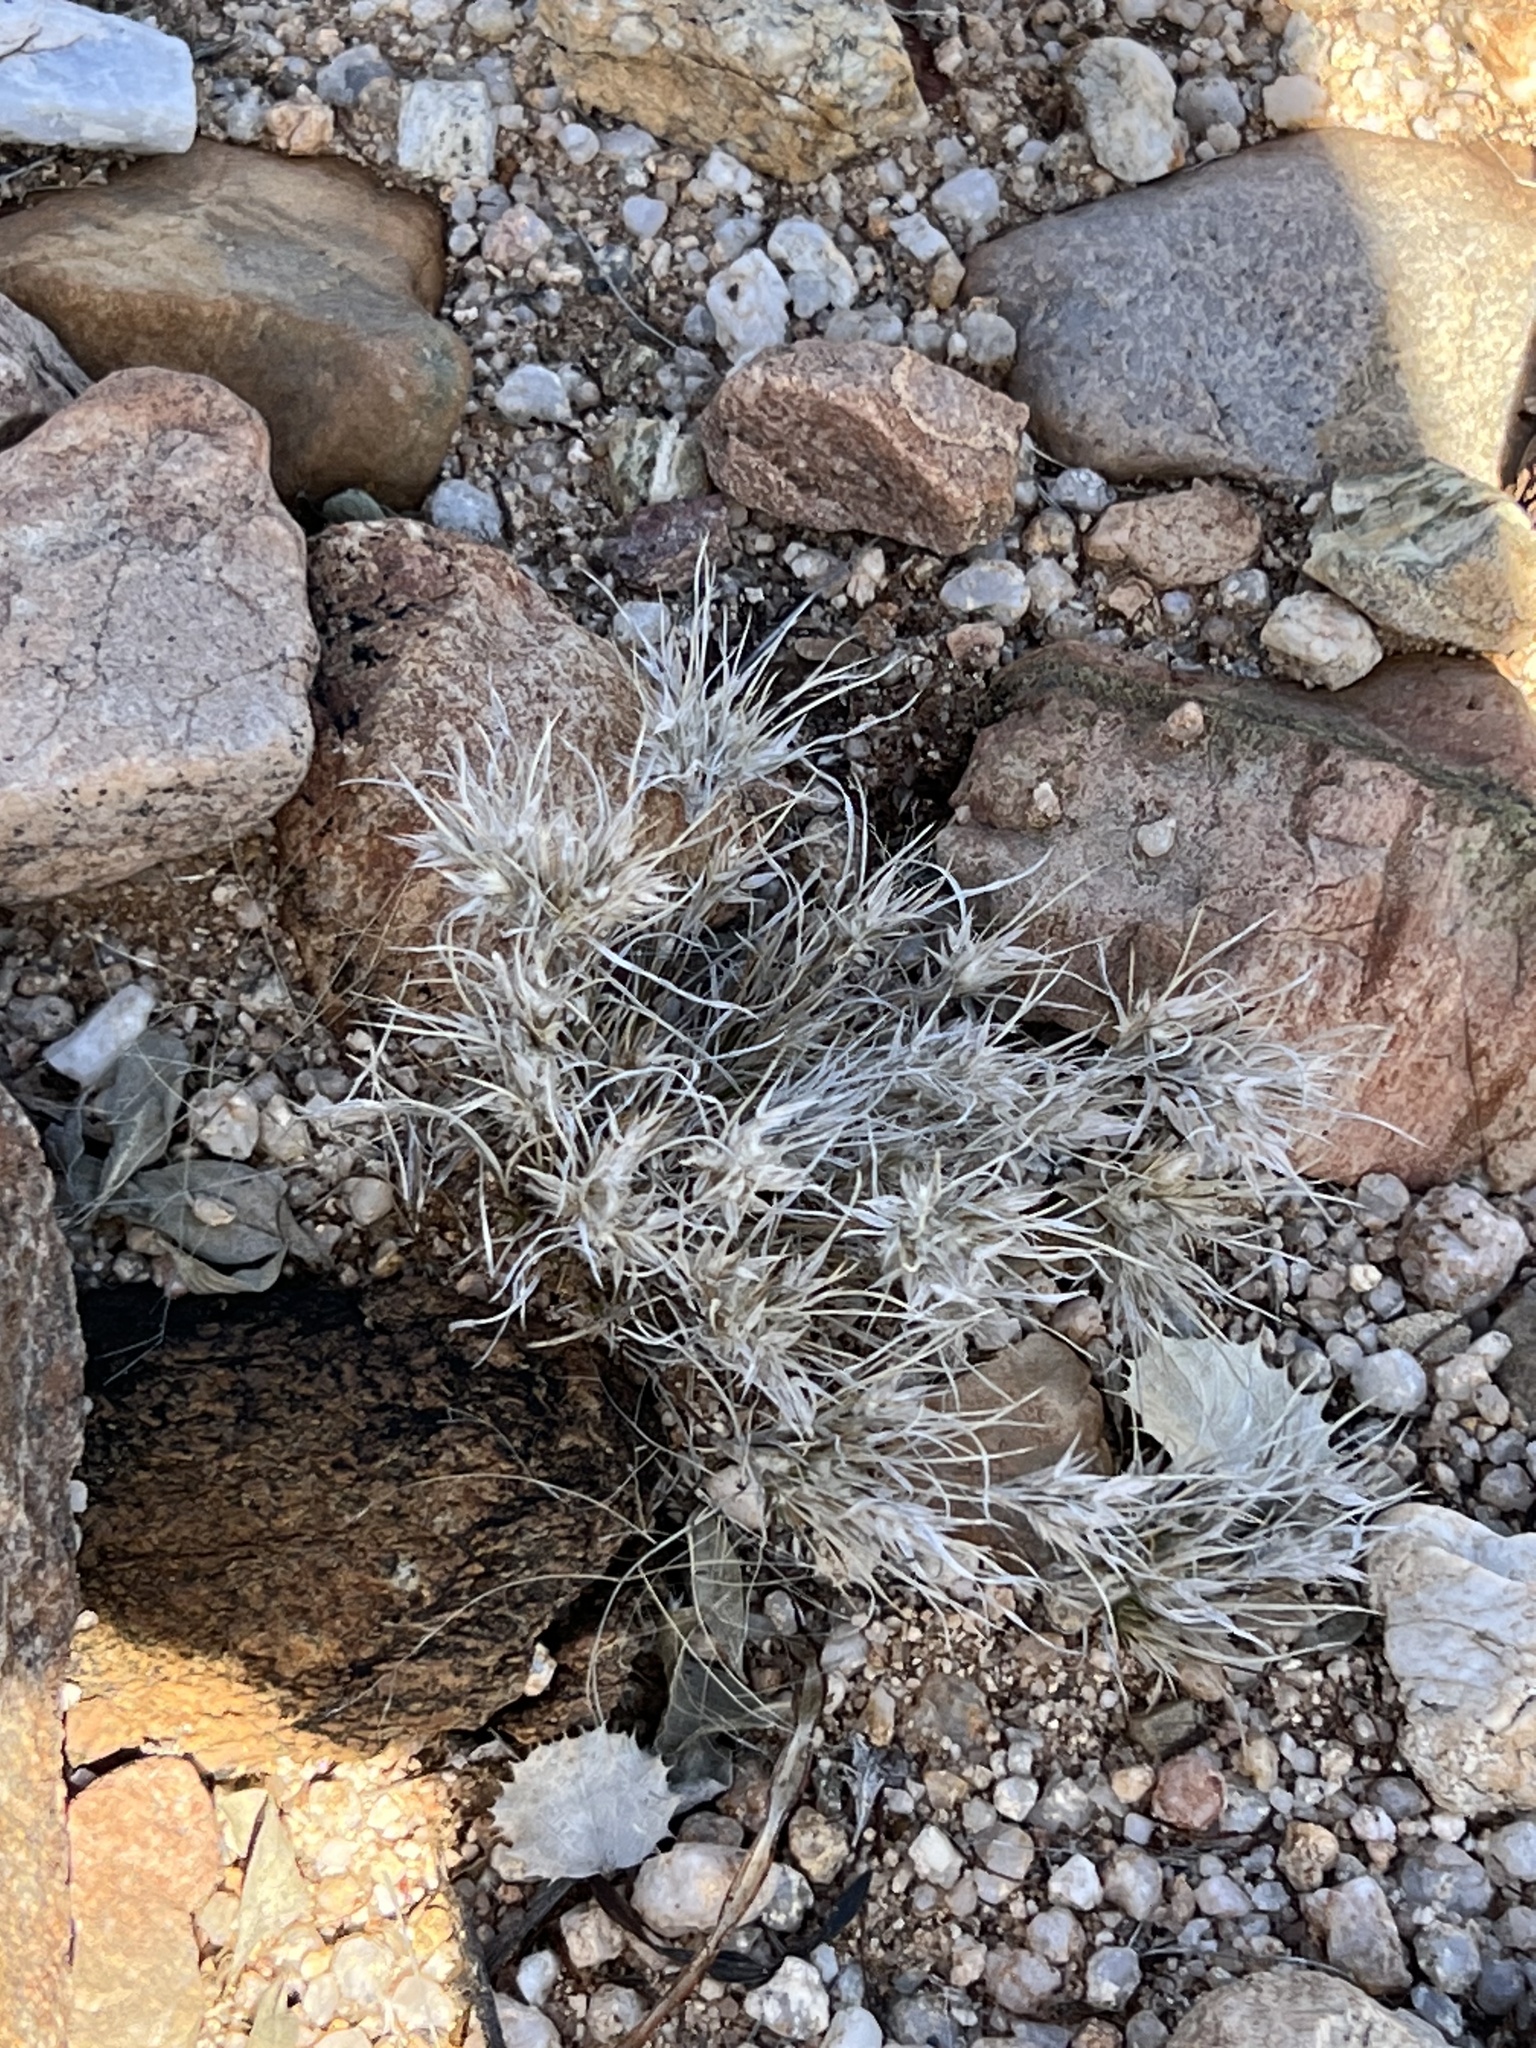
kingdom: Plantae
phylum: Tracheophyta
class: Liliopsida
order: Poales
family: Poaceae
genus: Dasyochloa
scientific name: Dasyochloa pulchella
